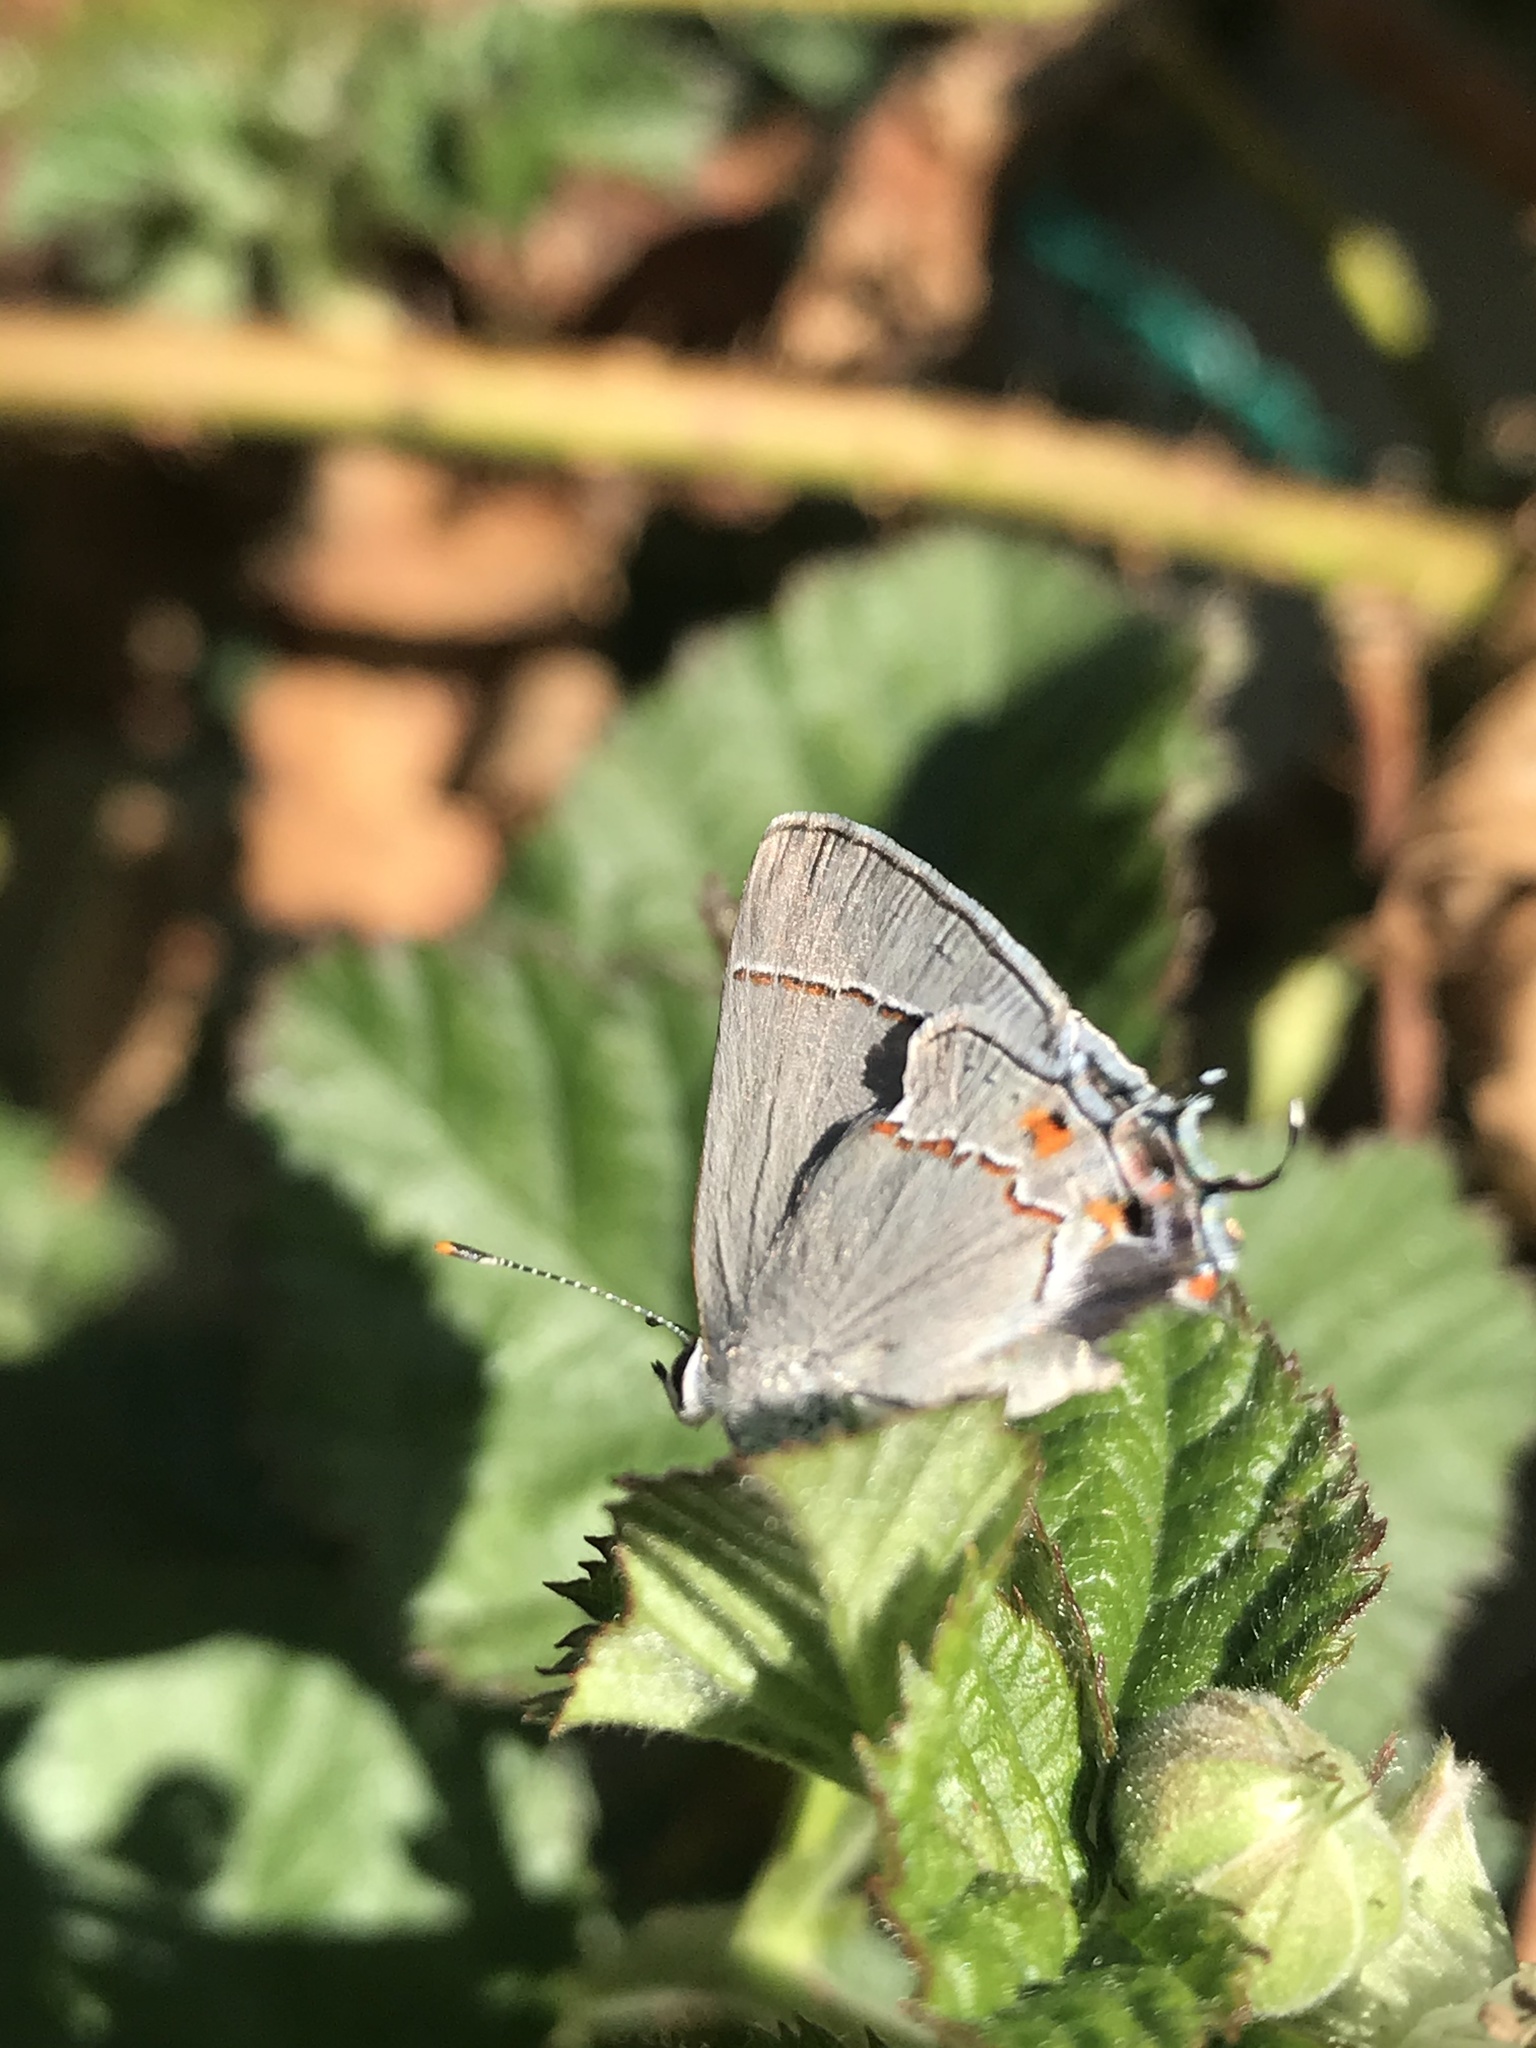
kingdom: Animalia
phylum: Arthropoda
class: Insecta
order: Lepidoptera
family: Lycaenidae
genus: Strymon
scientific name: Strymon melinus
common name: Gray hairstreak
